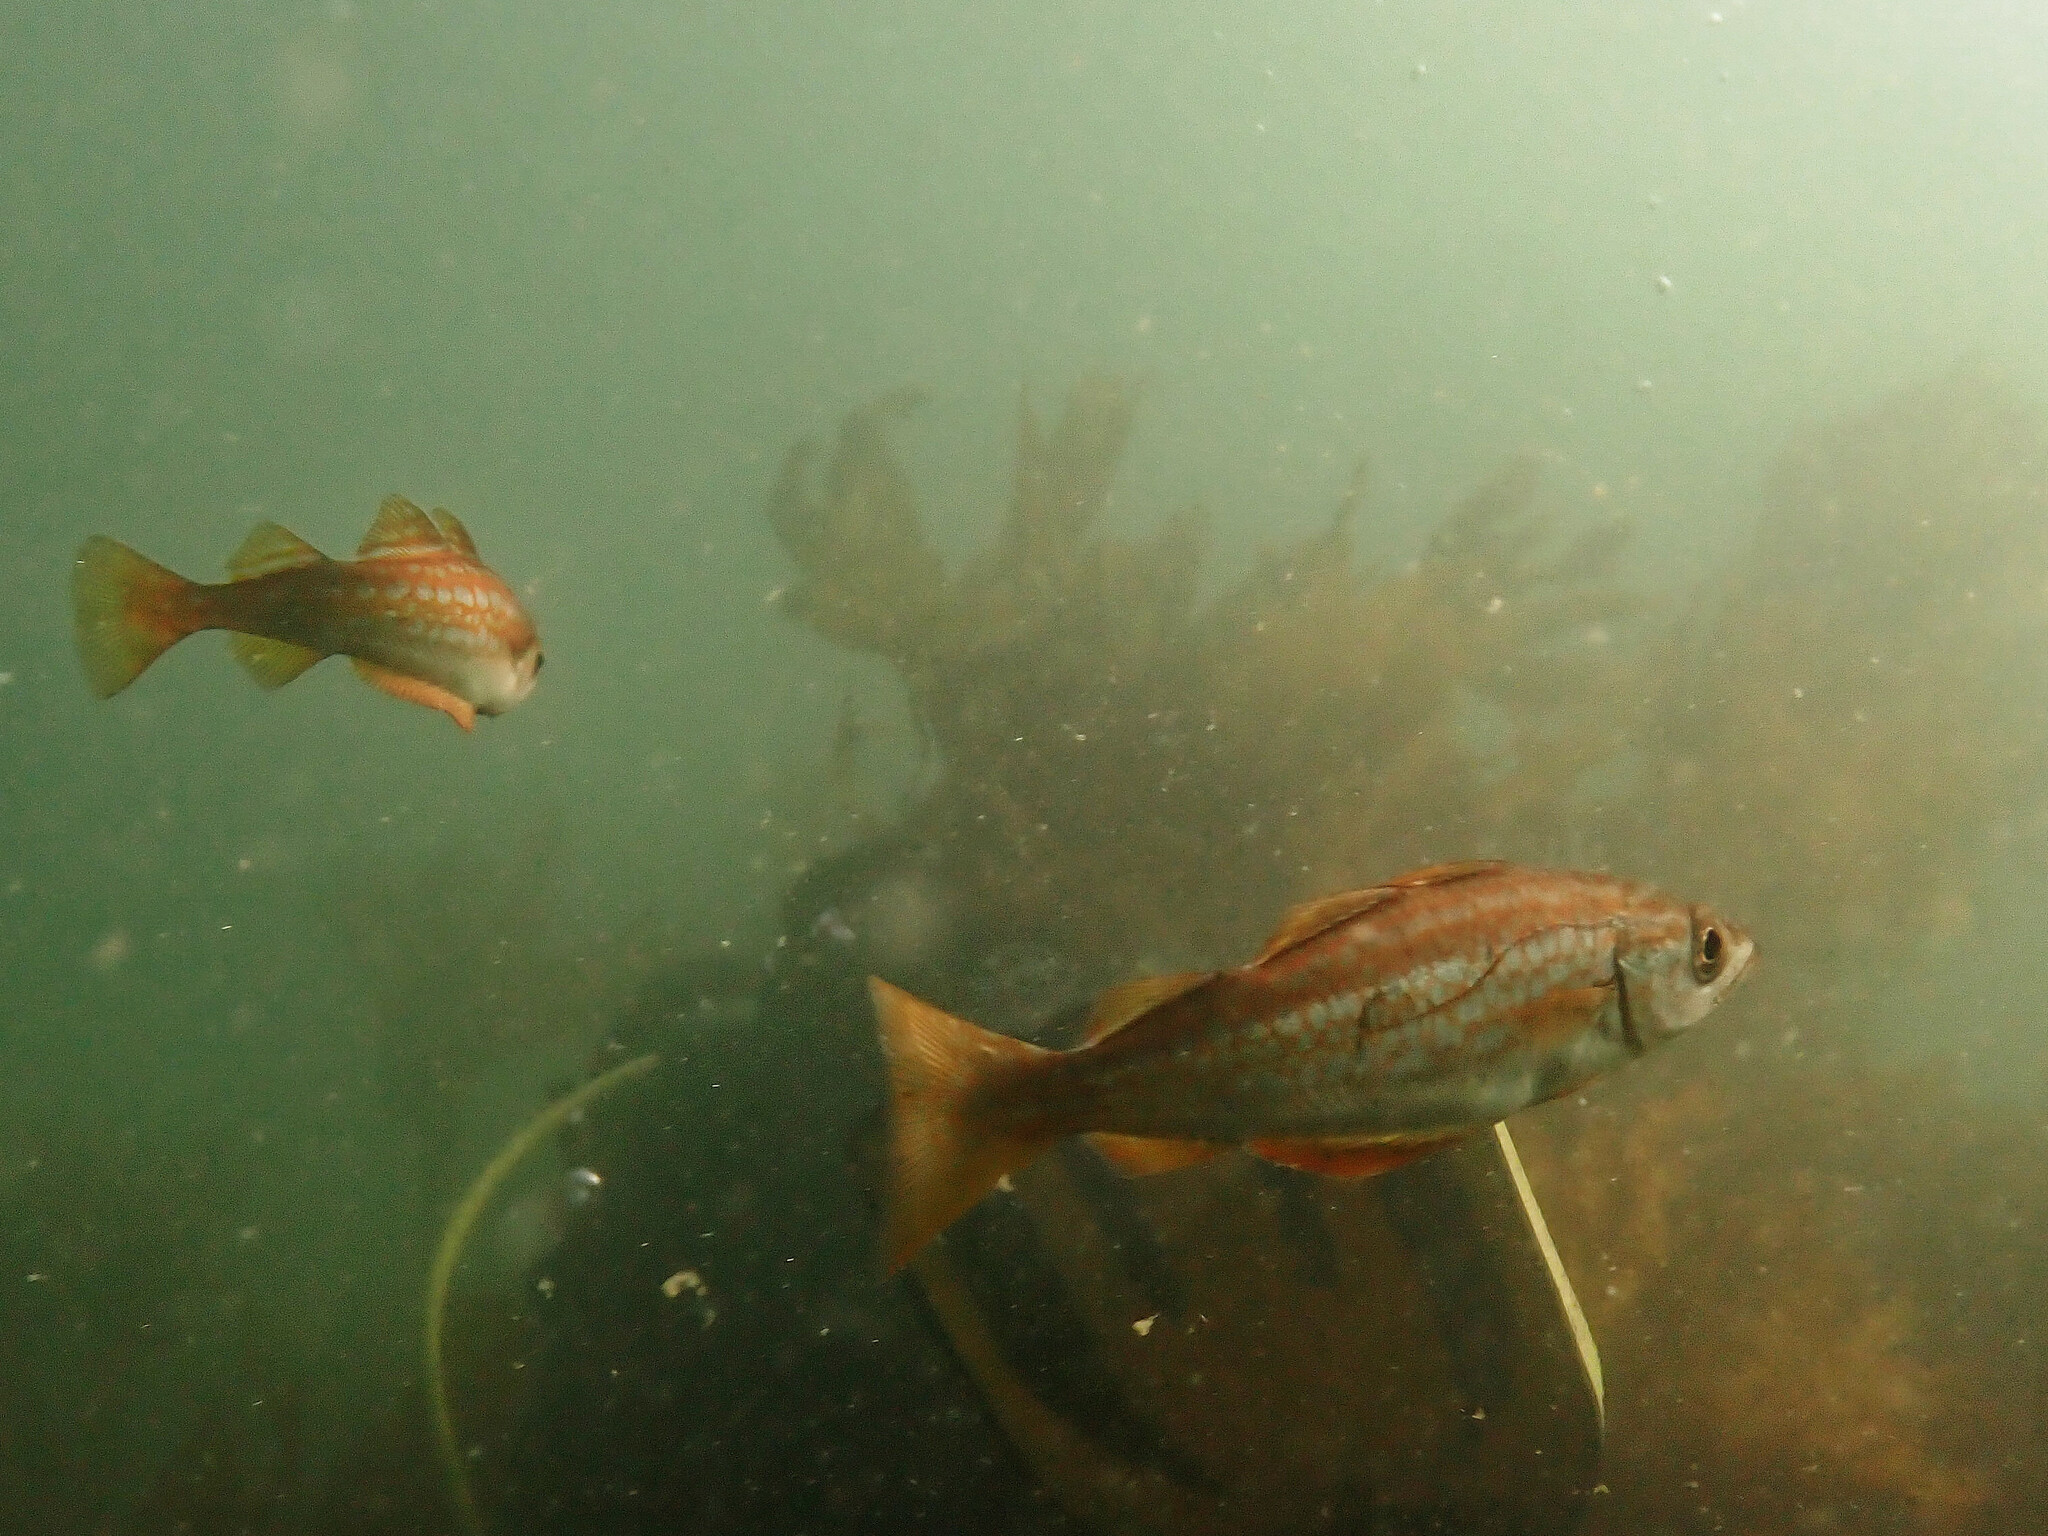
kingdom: Animalia
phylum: Chordata
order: Gadiformes
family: Gadidae
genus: Pollachius
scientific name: Pollachius pollachius
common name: Pollack
